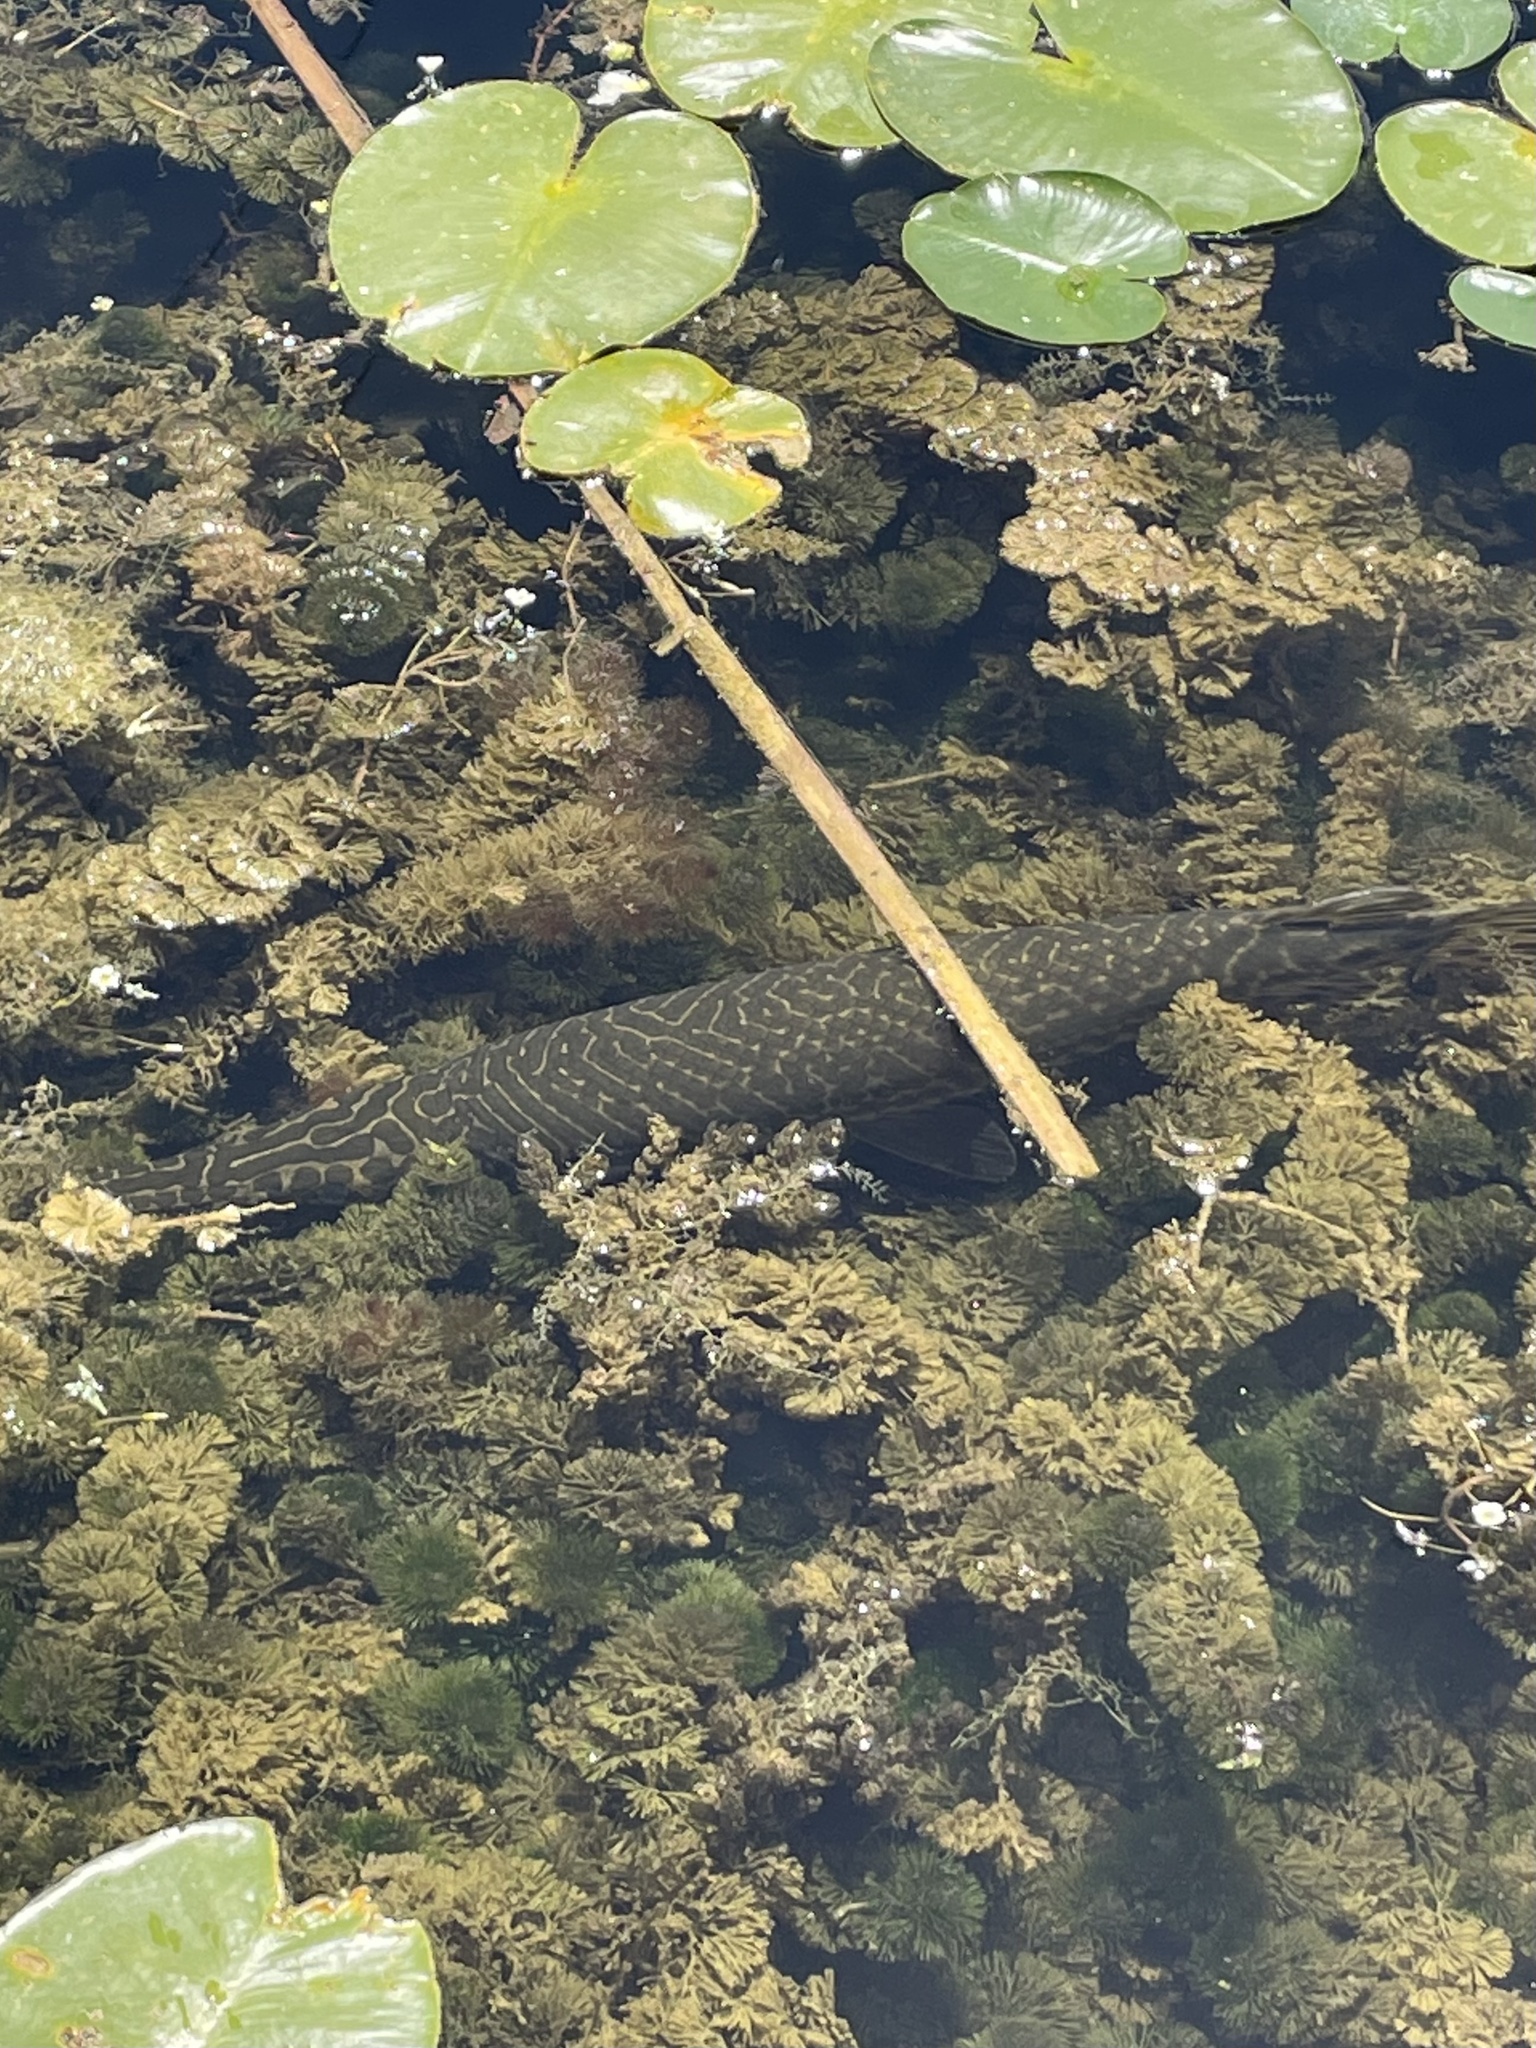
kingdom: Animalia
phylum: Chordata
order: Lepisosteiformes
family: Lepisosteidae
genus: Lepisosteus
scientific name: Lepisosteus oculatus
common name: Spotted gar
